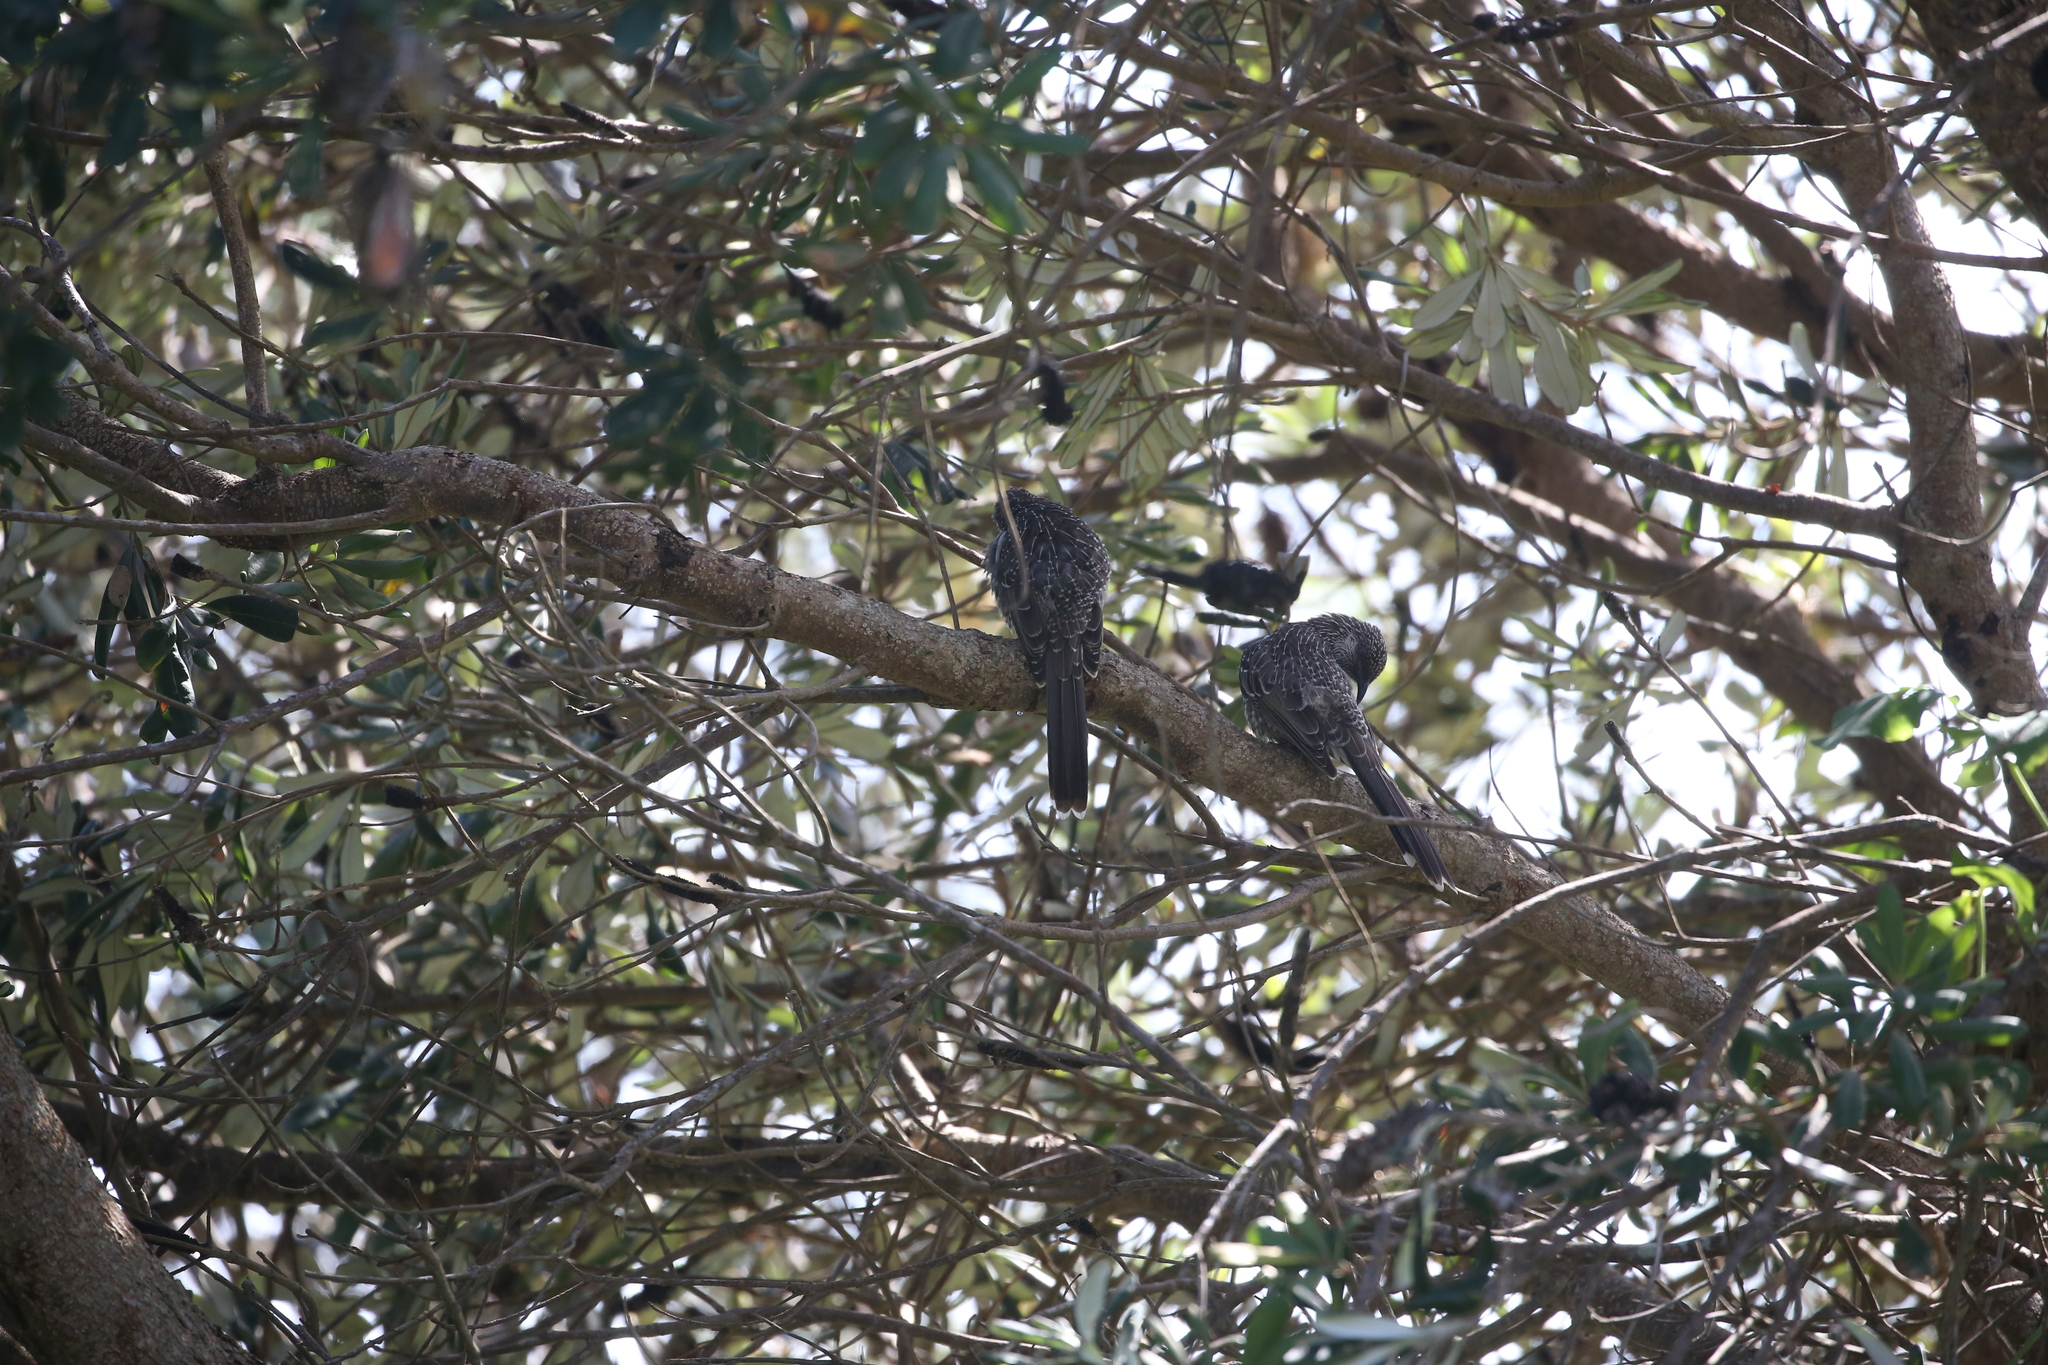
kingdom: Animalia
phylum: Chordata
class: Aves
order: Passeriformes
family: Meliphagidae
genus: Anthochaera
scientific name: Anthochaera chrysoptera
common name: Little wattlebird
